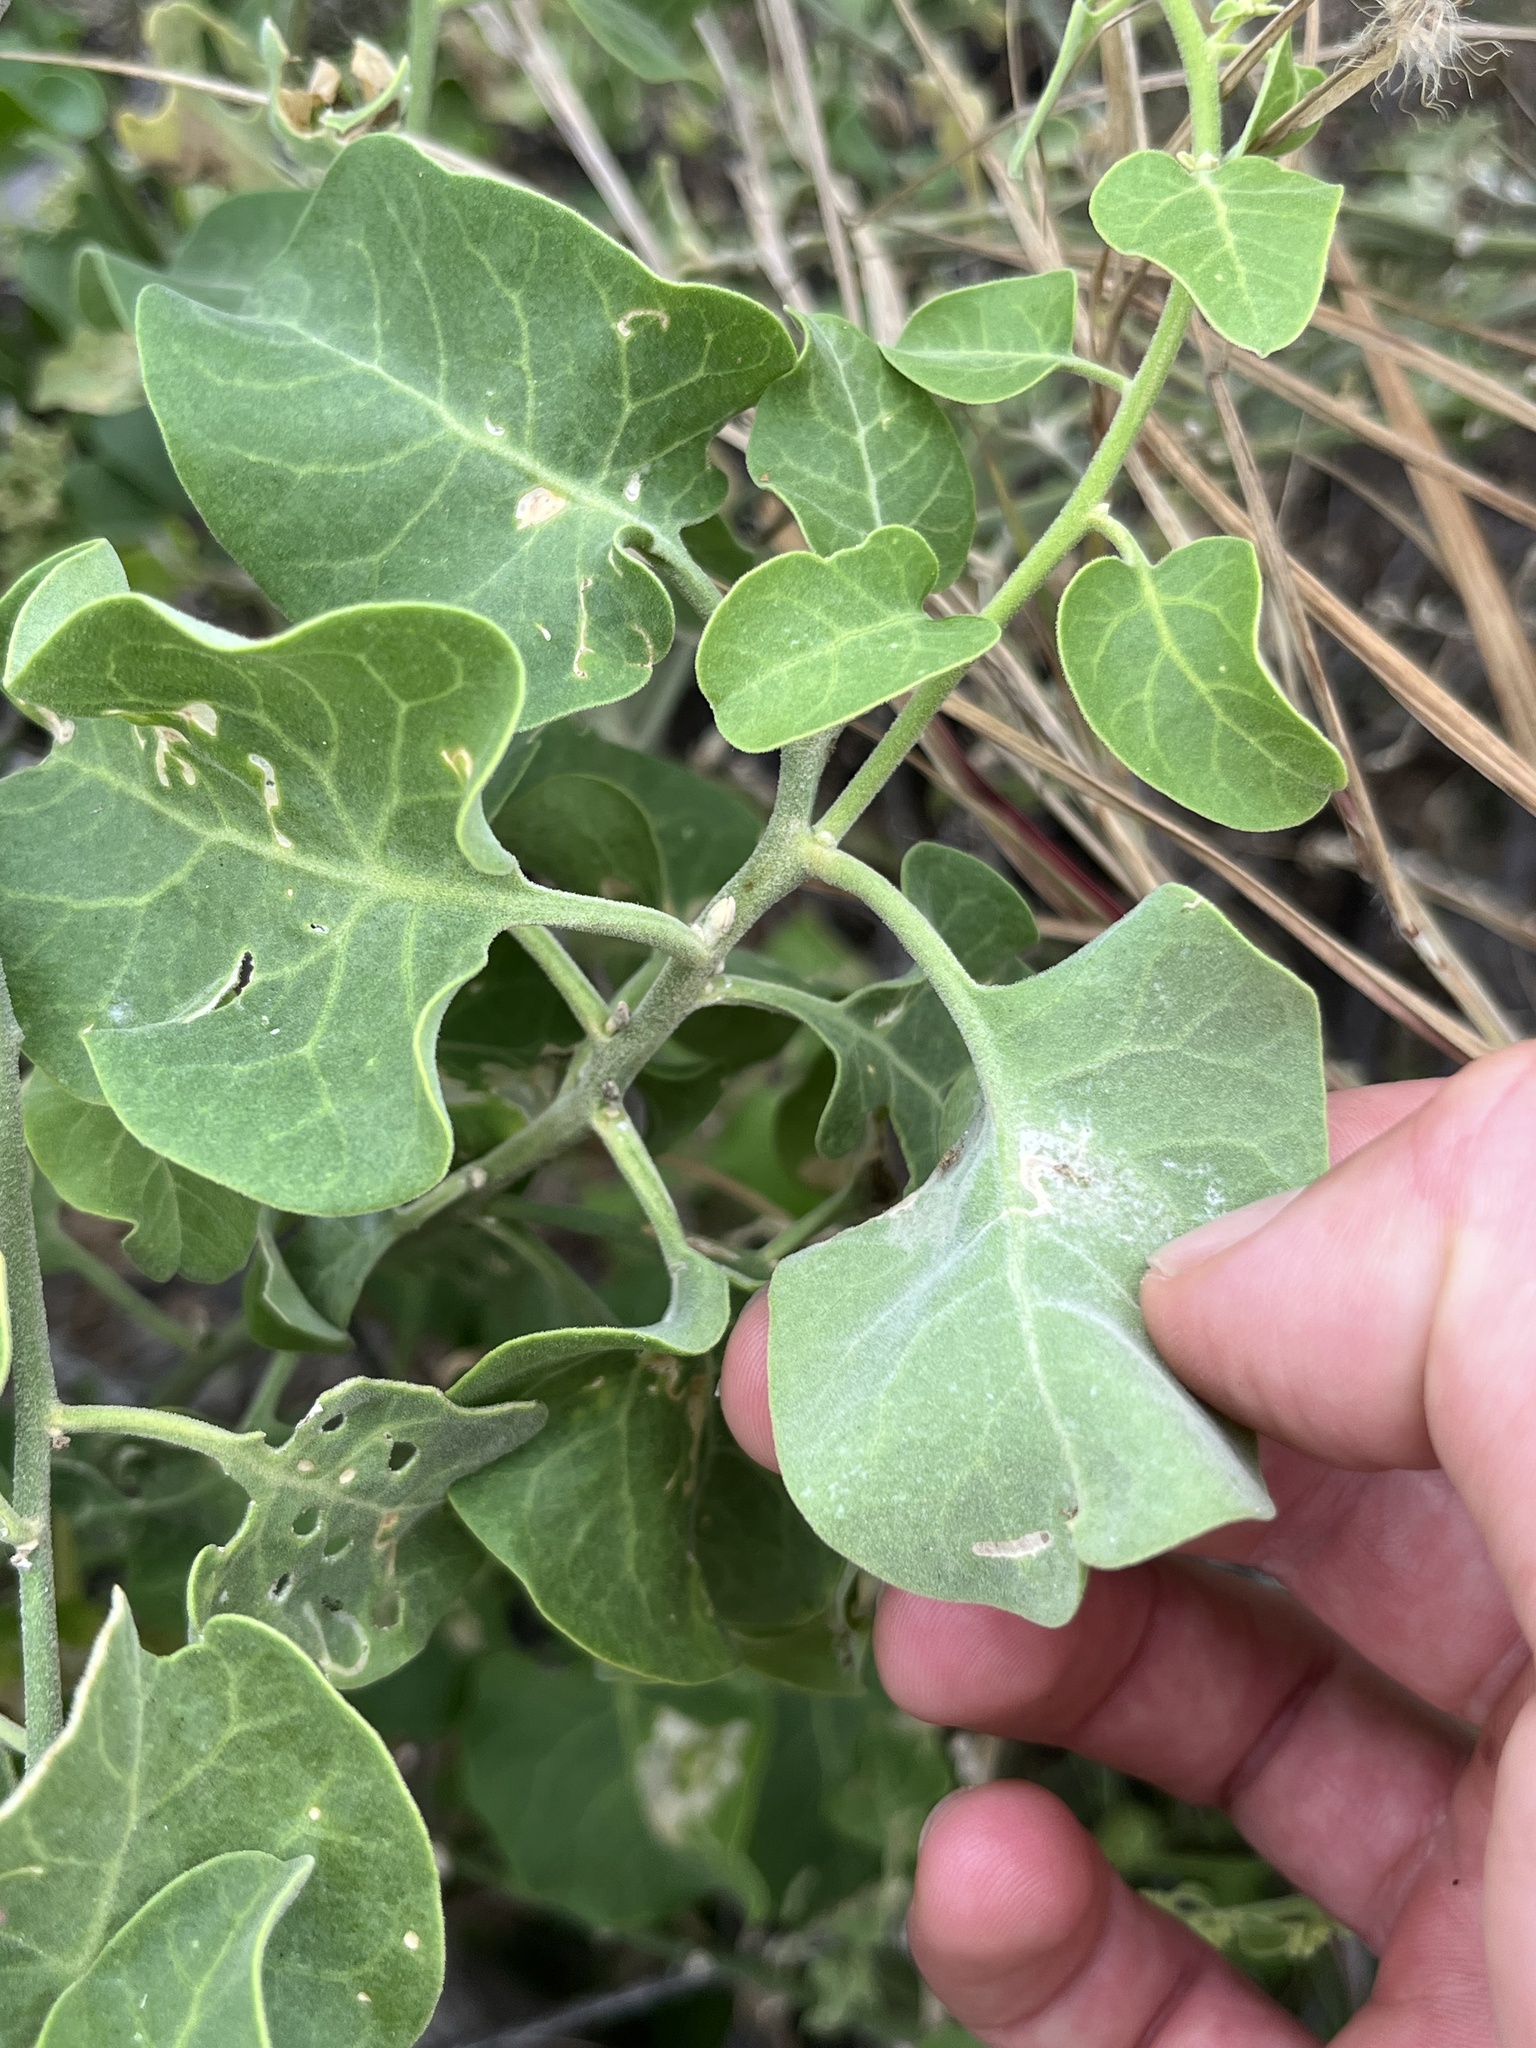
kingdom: Plantae
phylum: Tracheophyta
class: Magnoliopsida
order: Caryophyllales
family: Nyctaginaceae
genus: Cryptocarpus
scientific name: Cryptocarpus pyriformis
